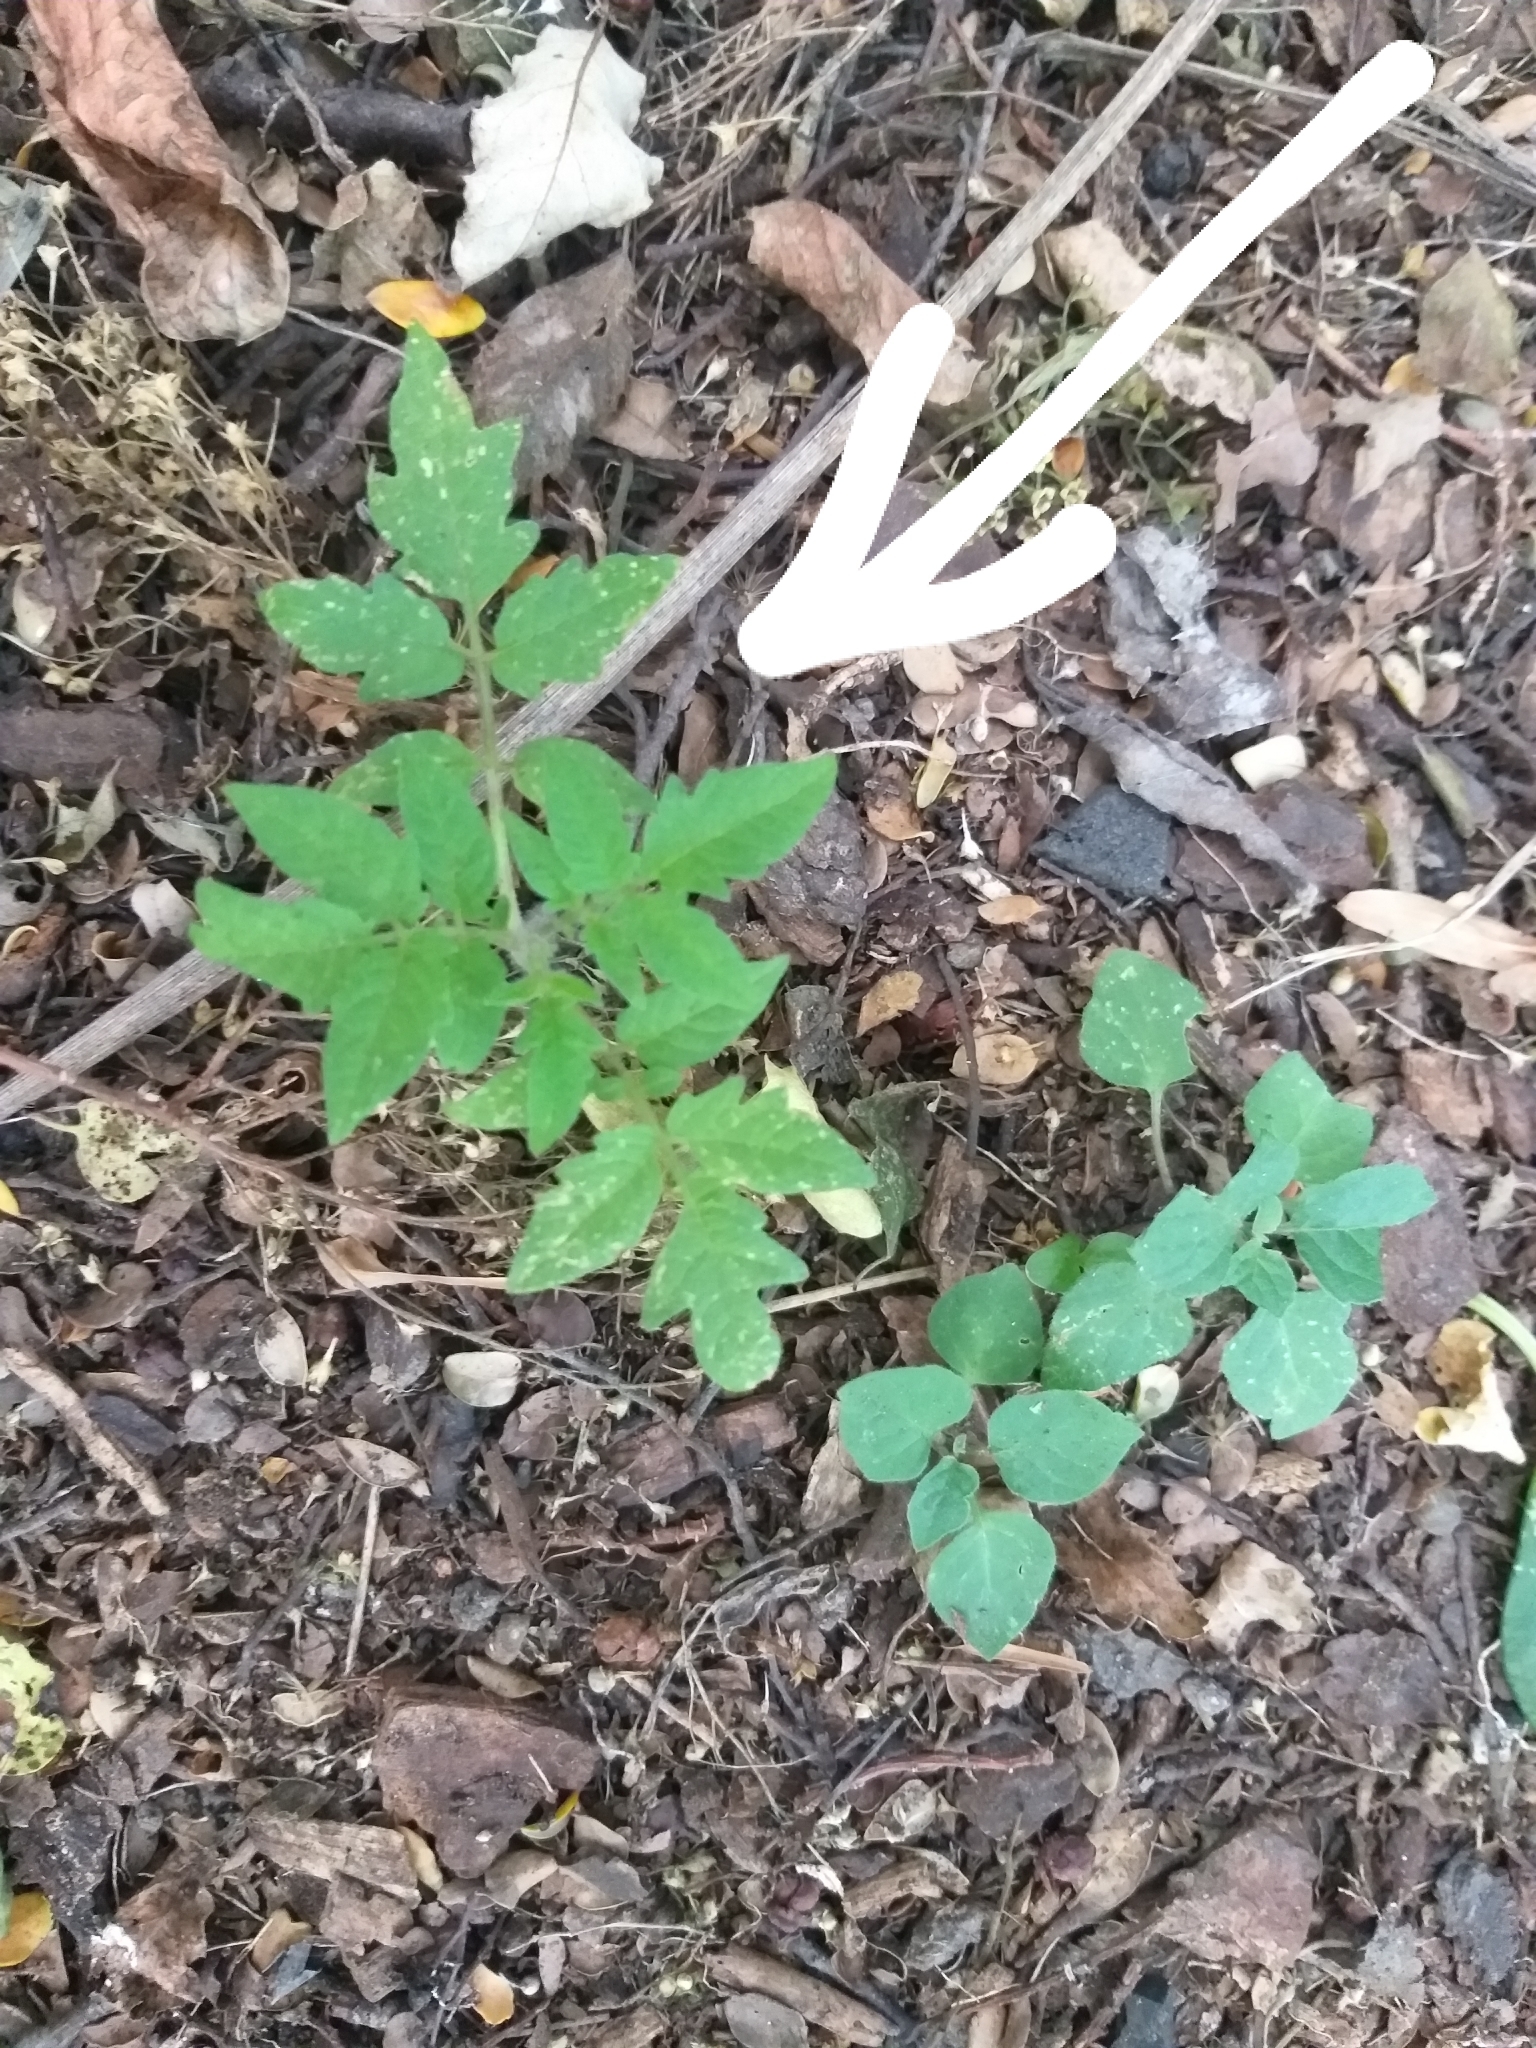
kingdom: Plantae
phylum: Tracheophyta
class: Magnoliopsida
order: Solanales
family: Solanaceae
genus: Solanum
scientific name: Solanum lycopersicum
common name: Garden tomato
